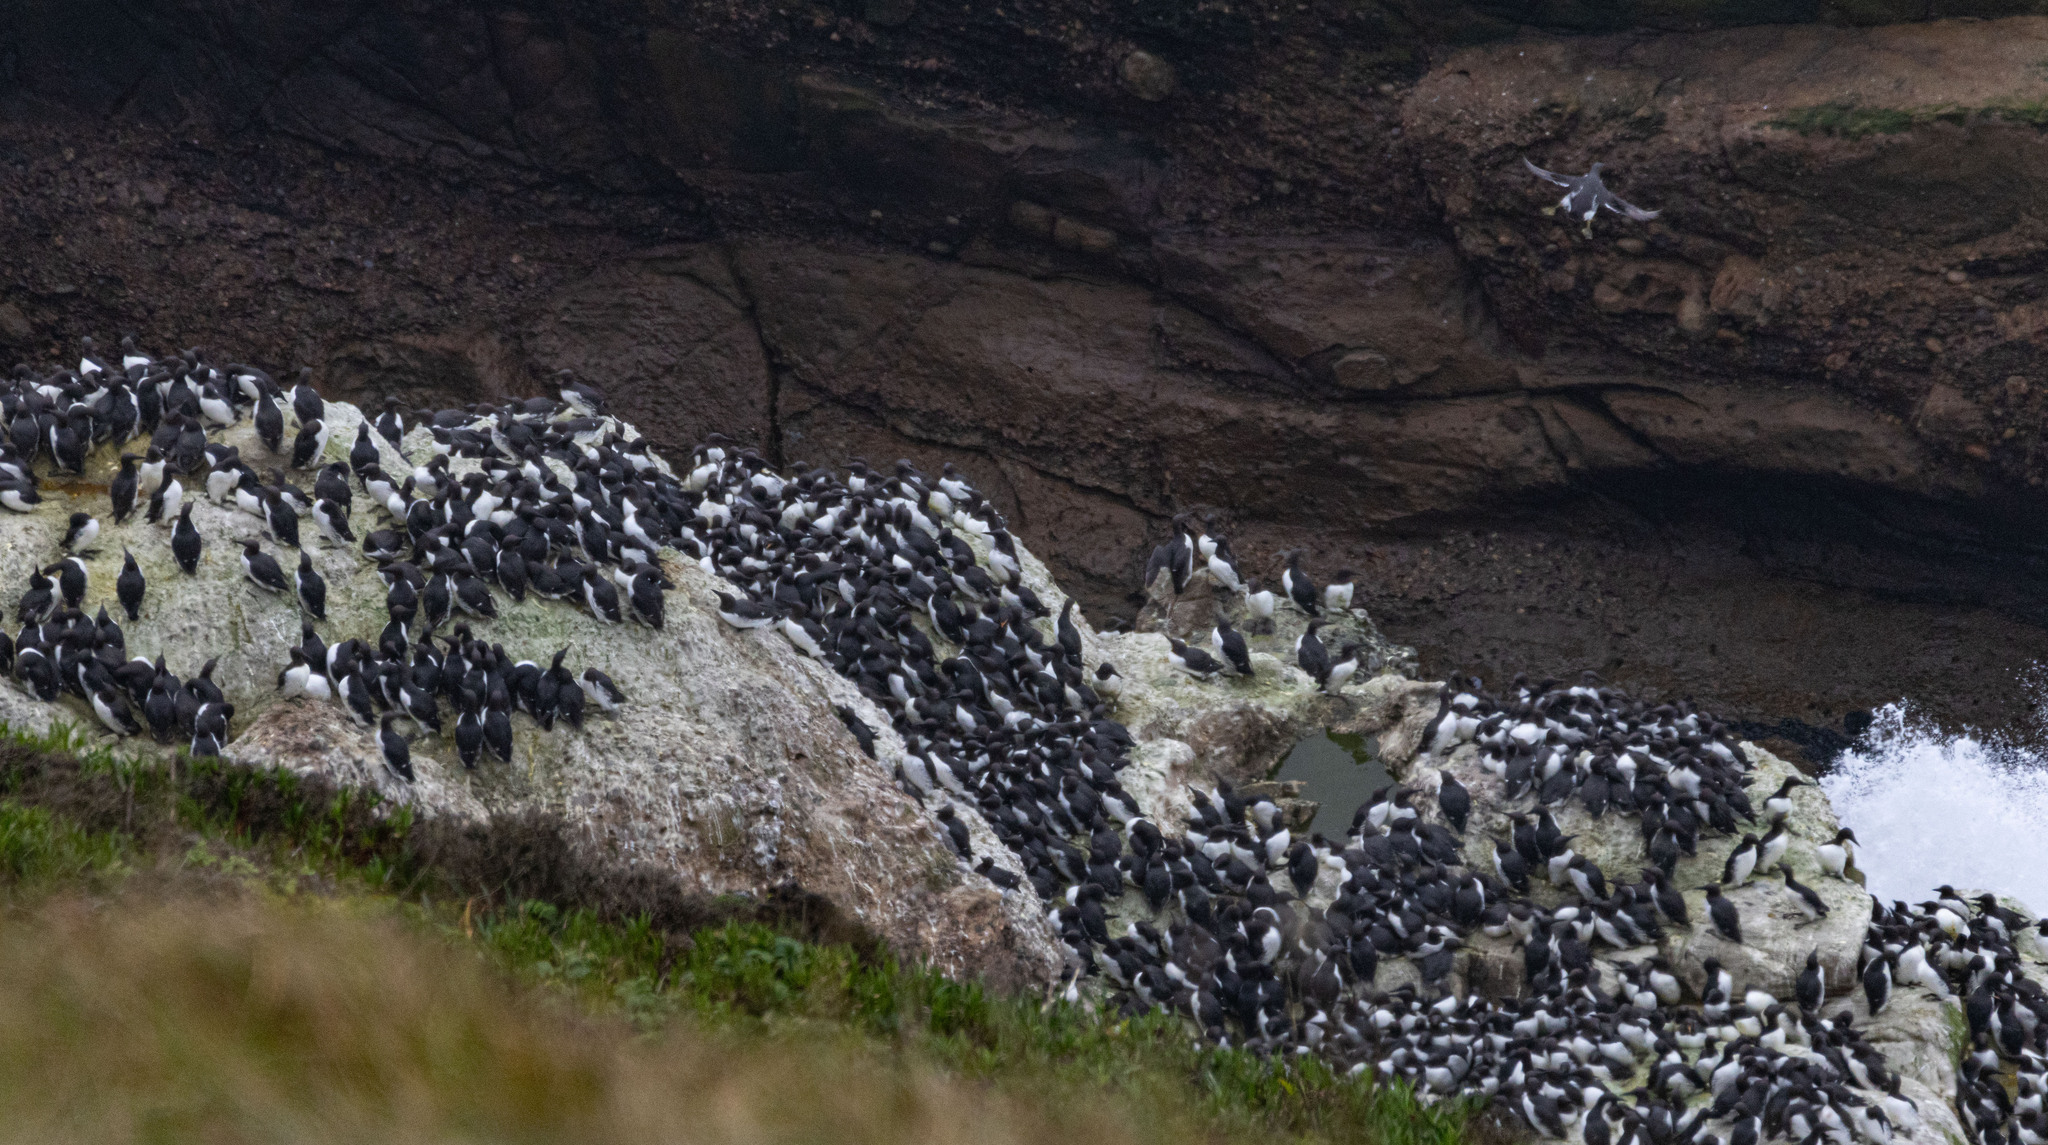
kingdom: Animalia
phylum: Chordata
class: Aves
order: Charadriiformes
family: Alcidae
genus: Uria
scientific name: Uria aalge
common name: Common murre
